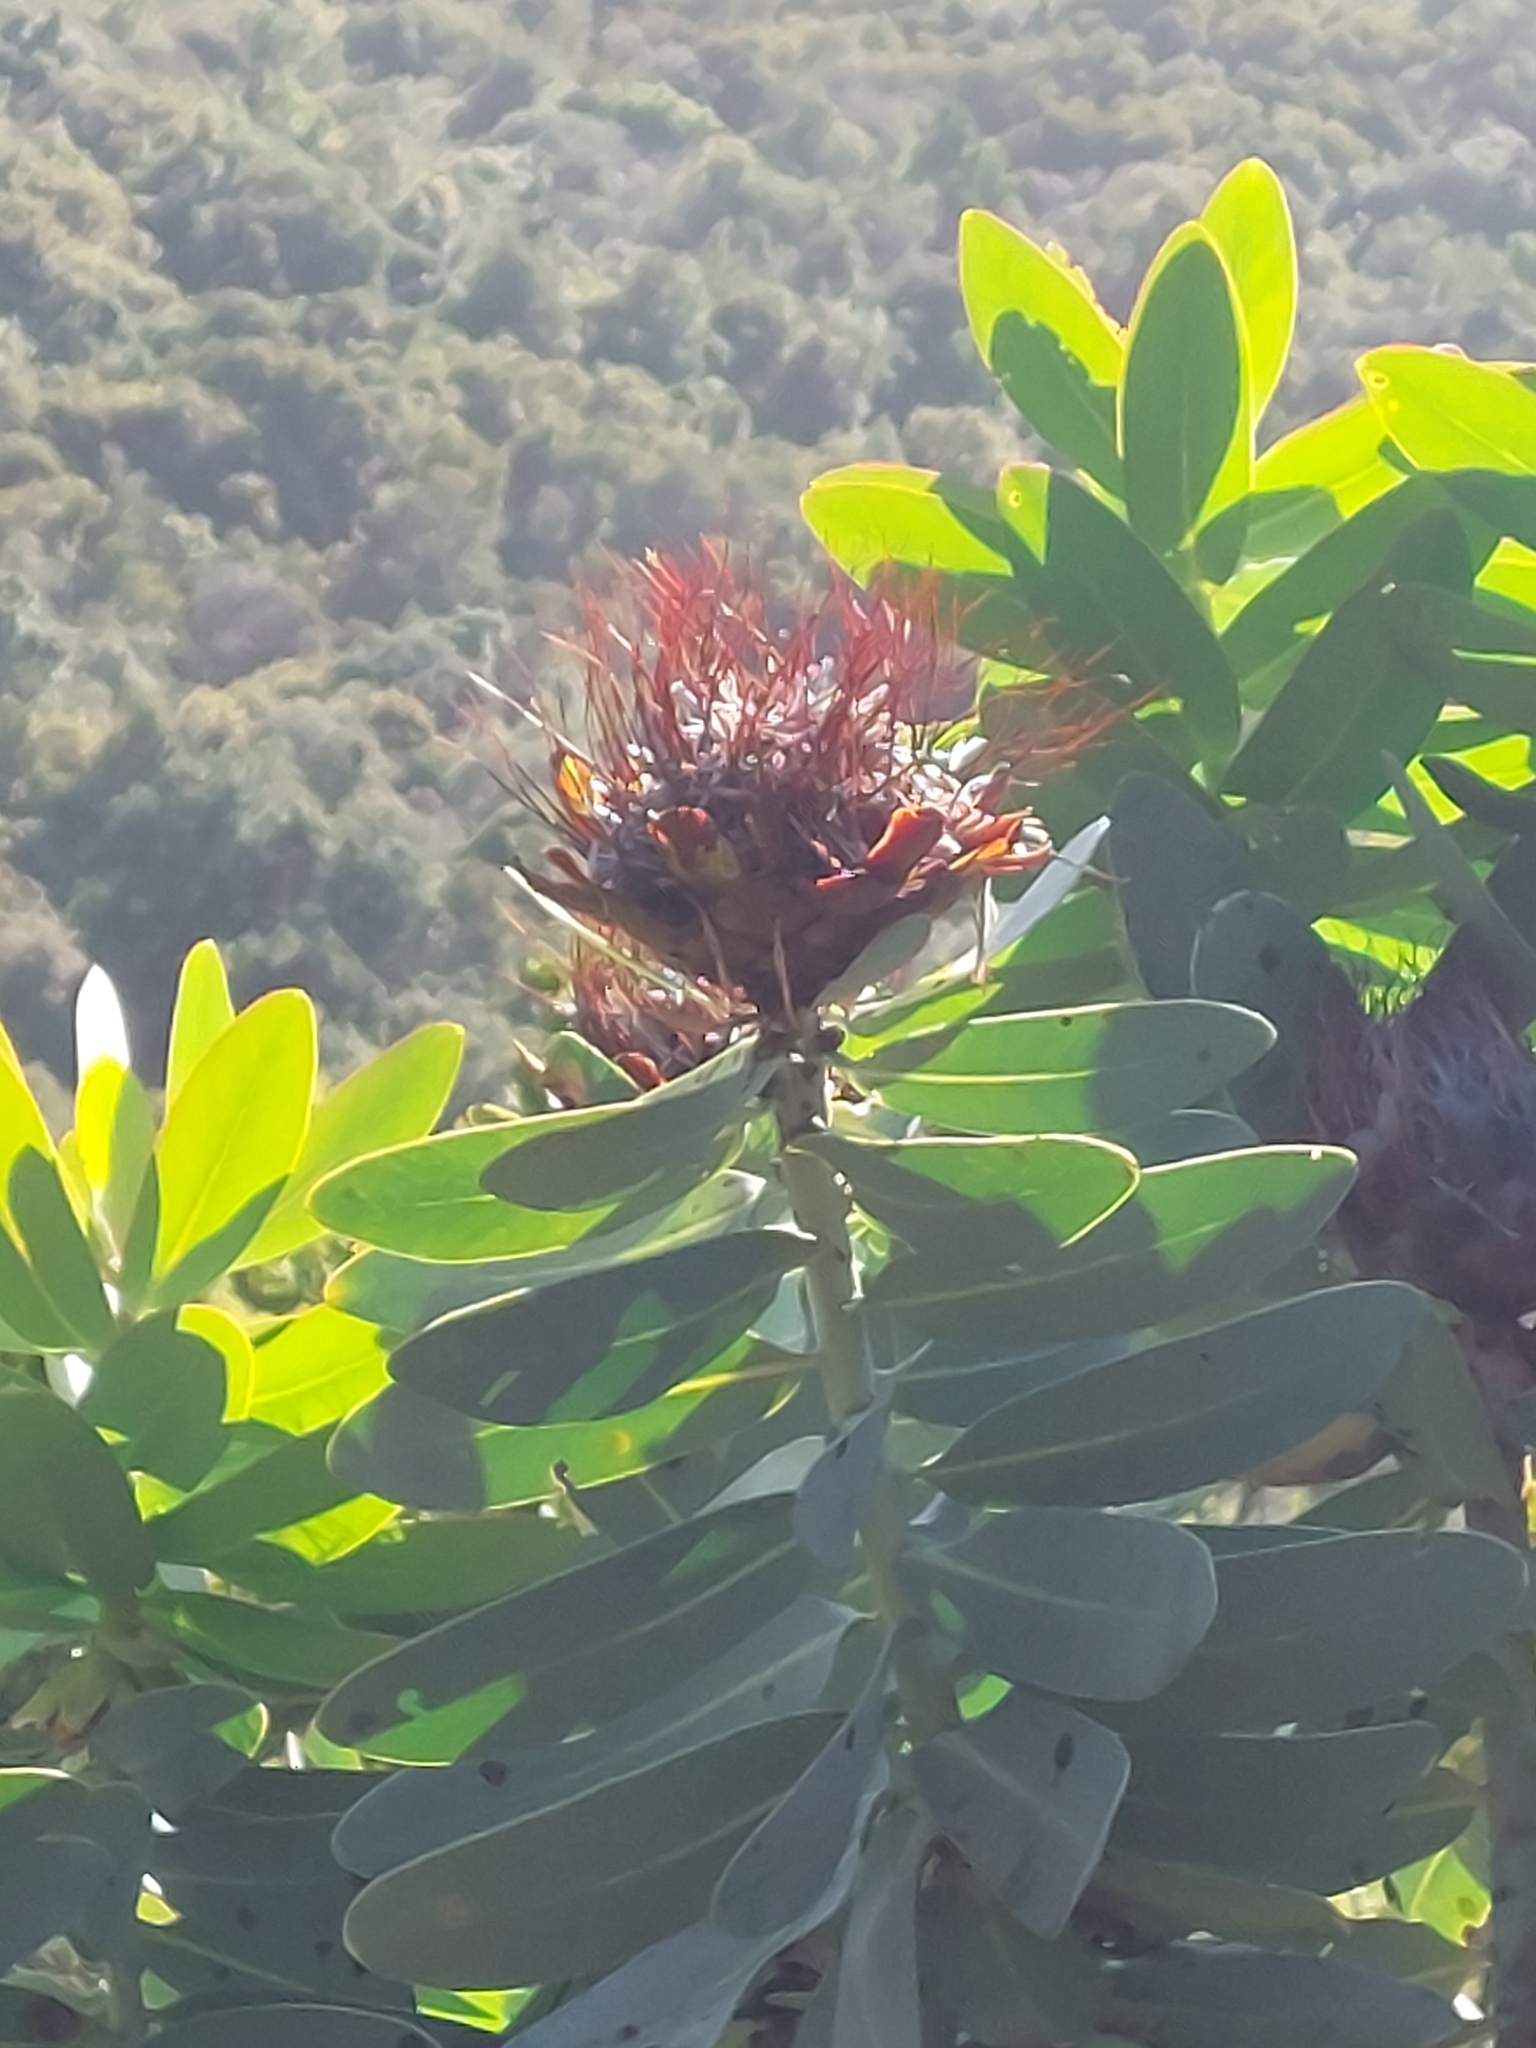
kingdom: Plantae
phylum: Tracheophyta
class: Magnoliopsida
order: Proteales
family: Proteaceae
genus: Protea
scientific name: Protea nitida
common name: Tree protea
